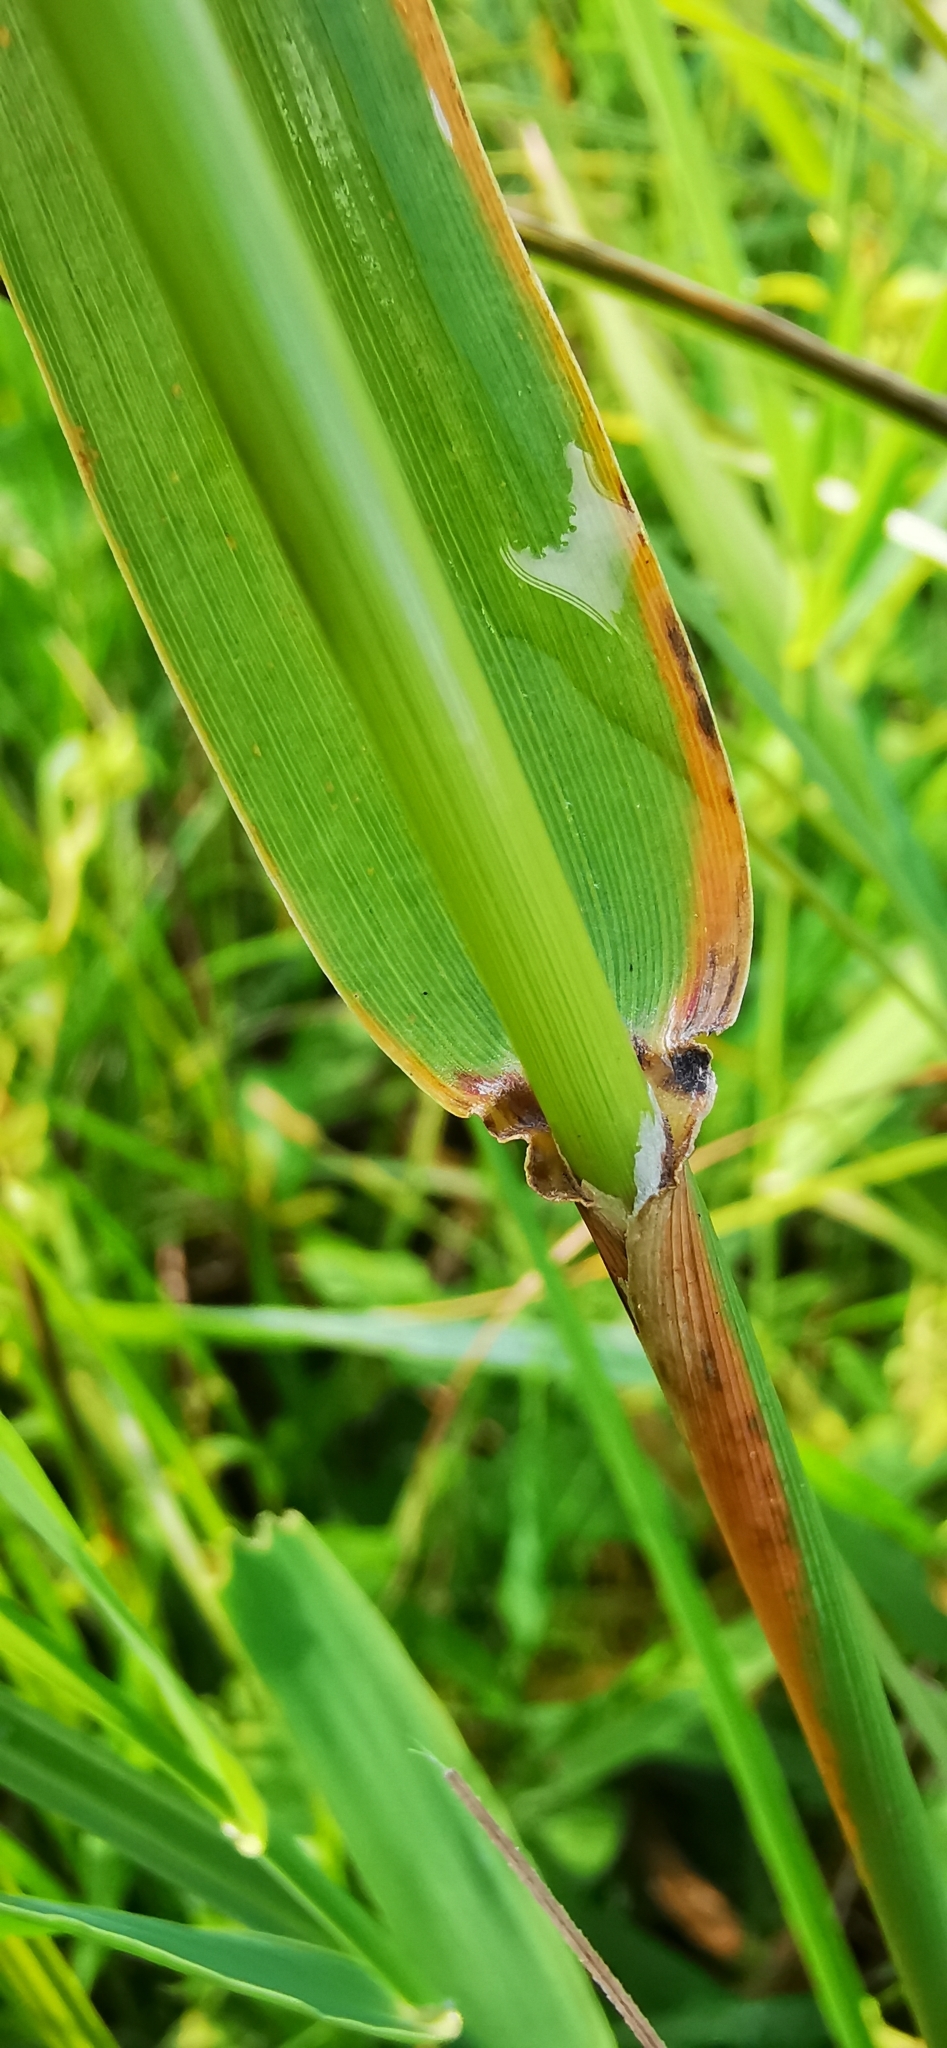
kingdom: Plantae
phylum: Tracheophyta
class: Liliopsida
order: Poales
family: Poaceae
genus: Phalaris
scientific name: Phalaris arundinacea
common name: Reed canary-grass
